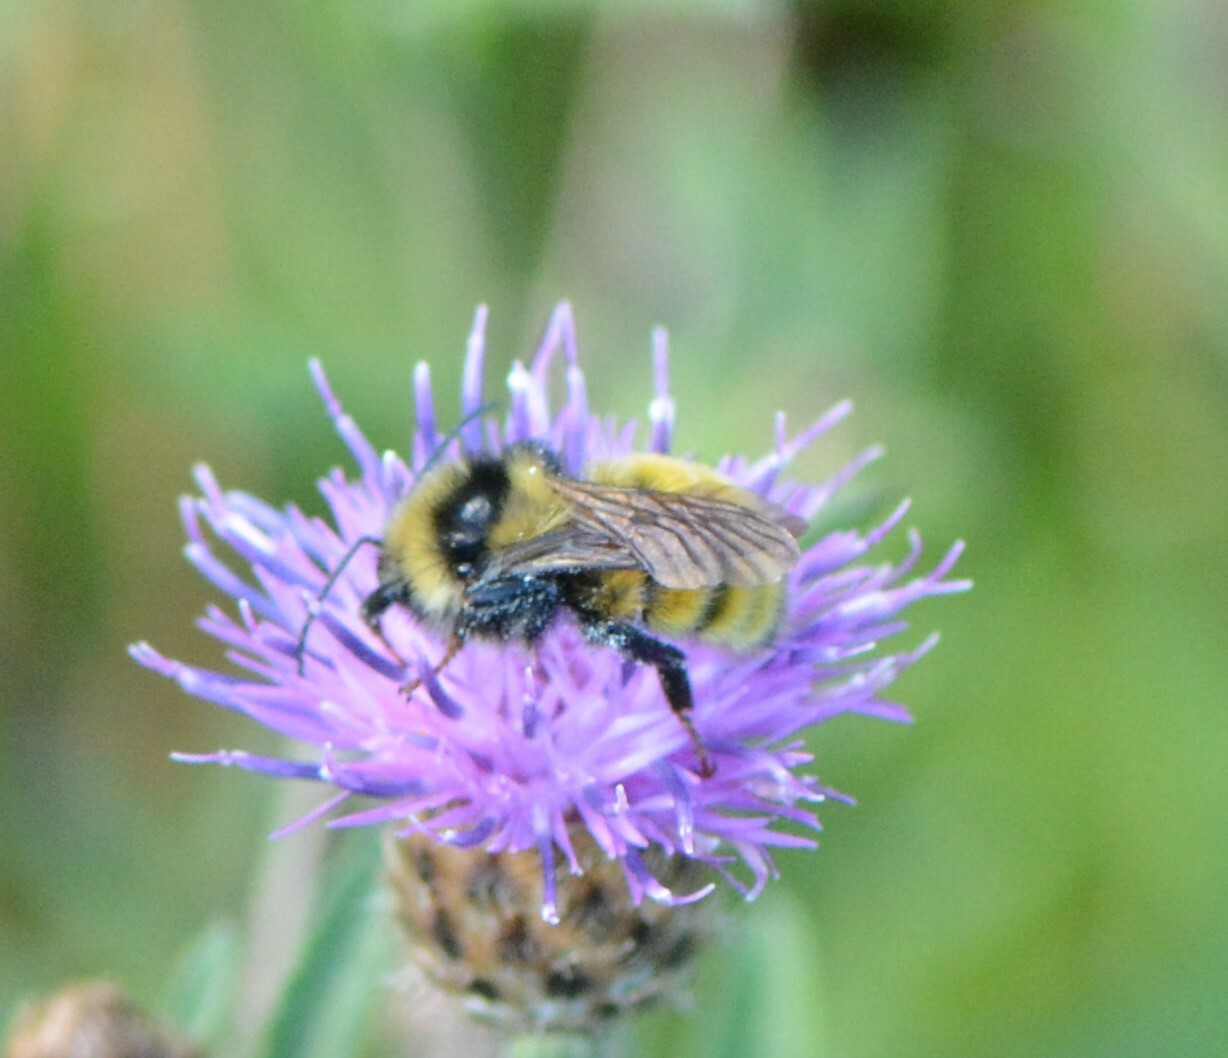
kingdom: Animalia
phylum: Arthropoda
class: Insecta
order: Hymenoptera
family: Apidae
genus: Bombus
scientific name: Bombus borealis
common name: Northern amber bumble bee
